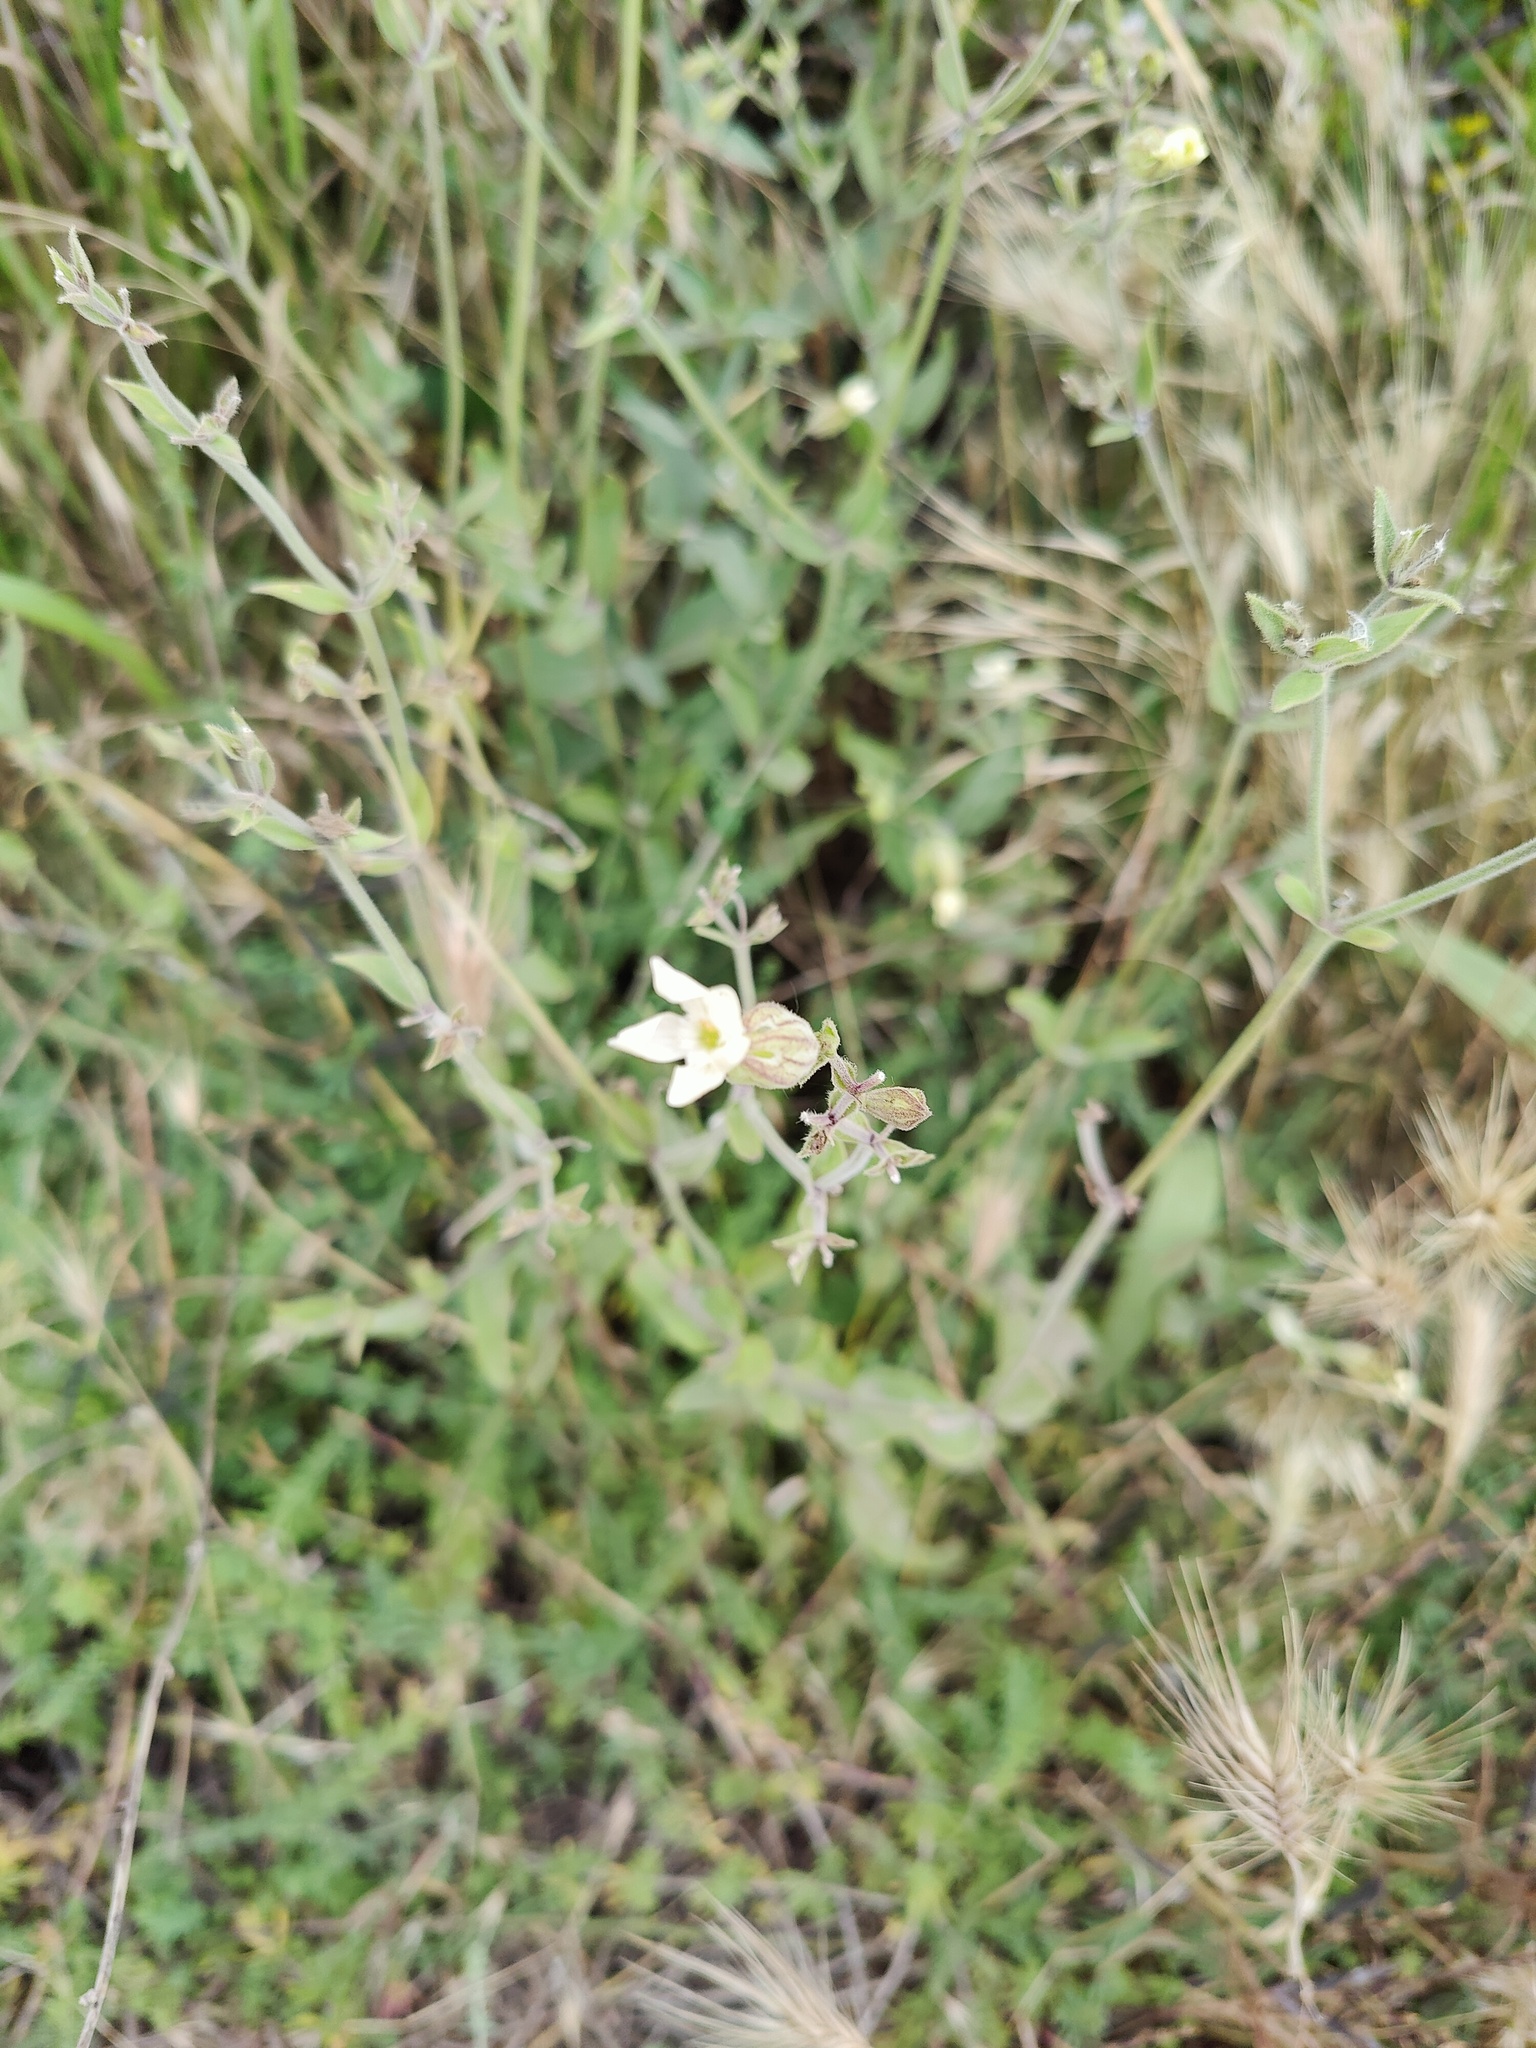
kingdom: Plantae
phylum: Tracheophyta
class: Magnoliopsida
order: Caryophyllales
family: Caryophyllaceae
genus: Silene
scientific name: Silene latifolia
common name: White campion
